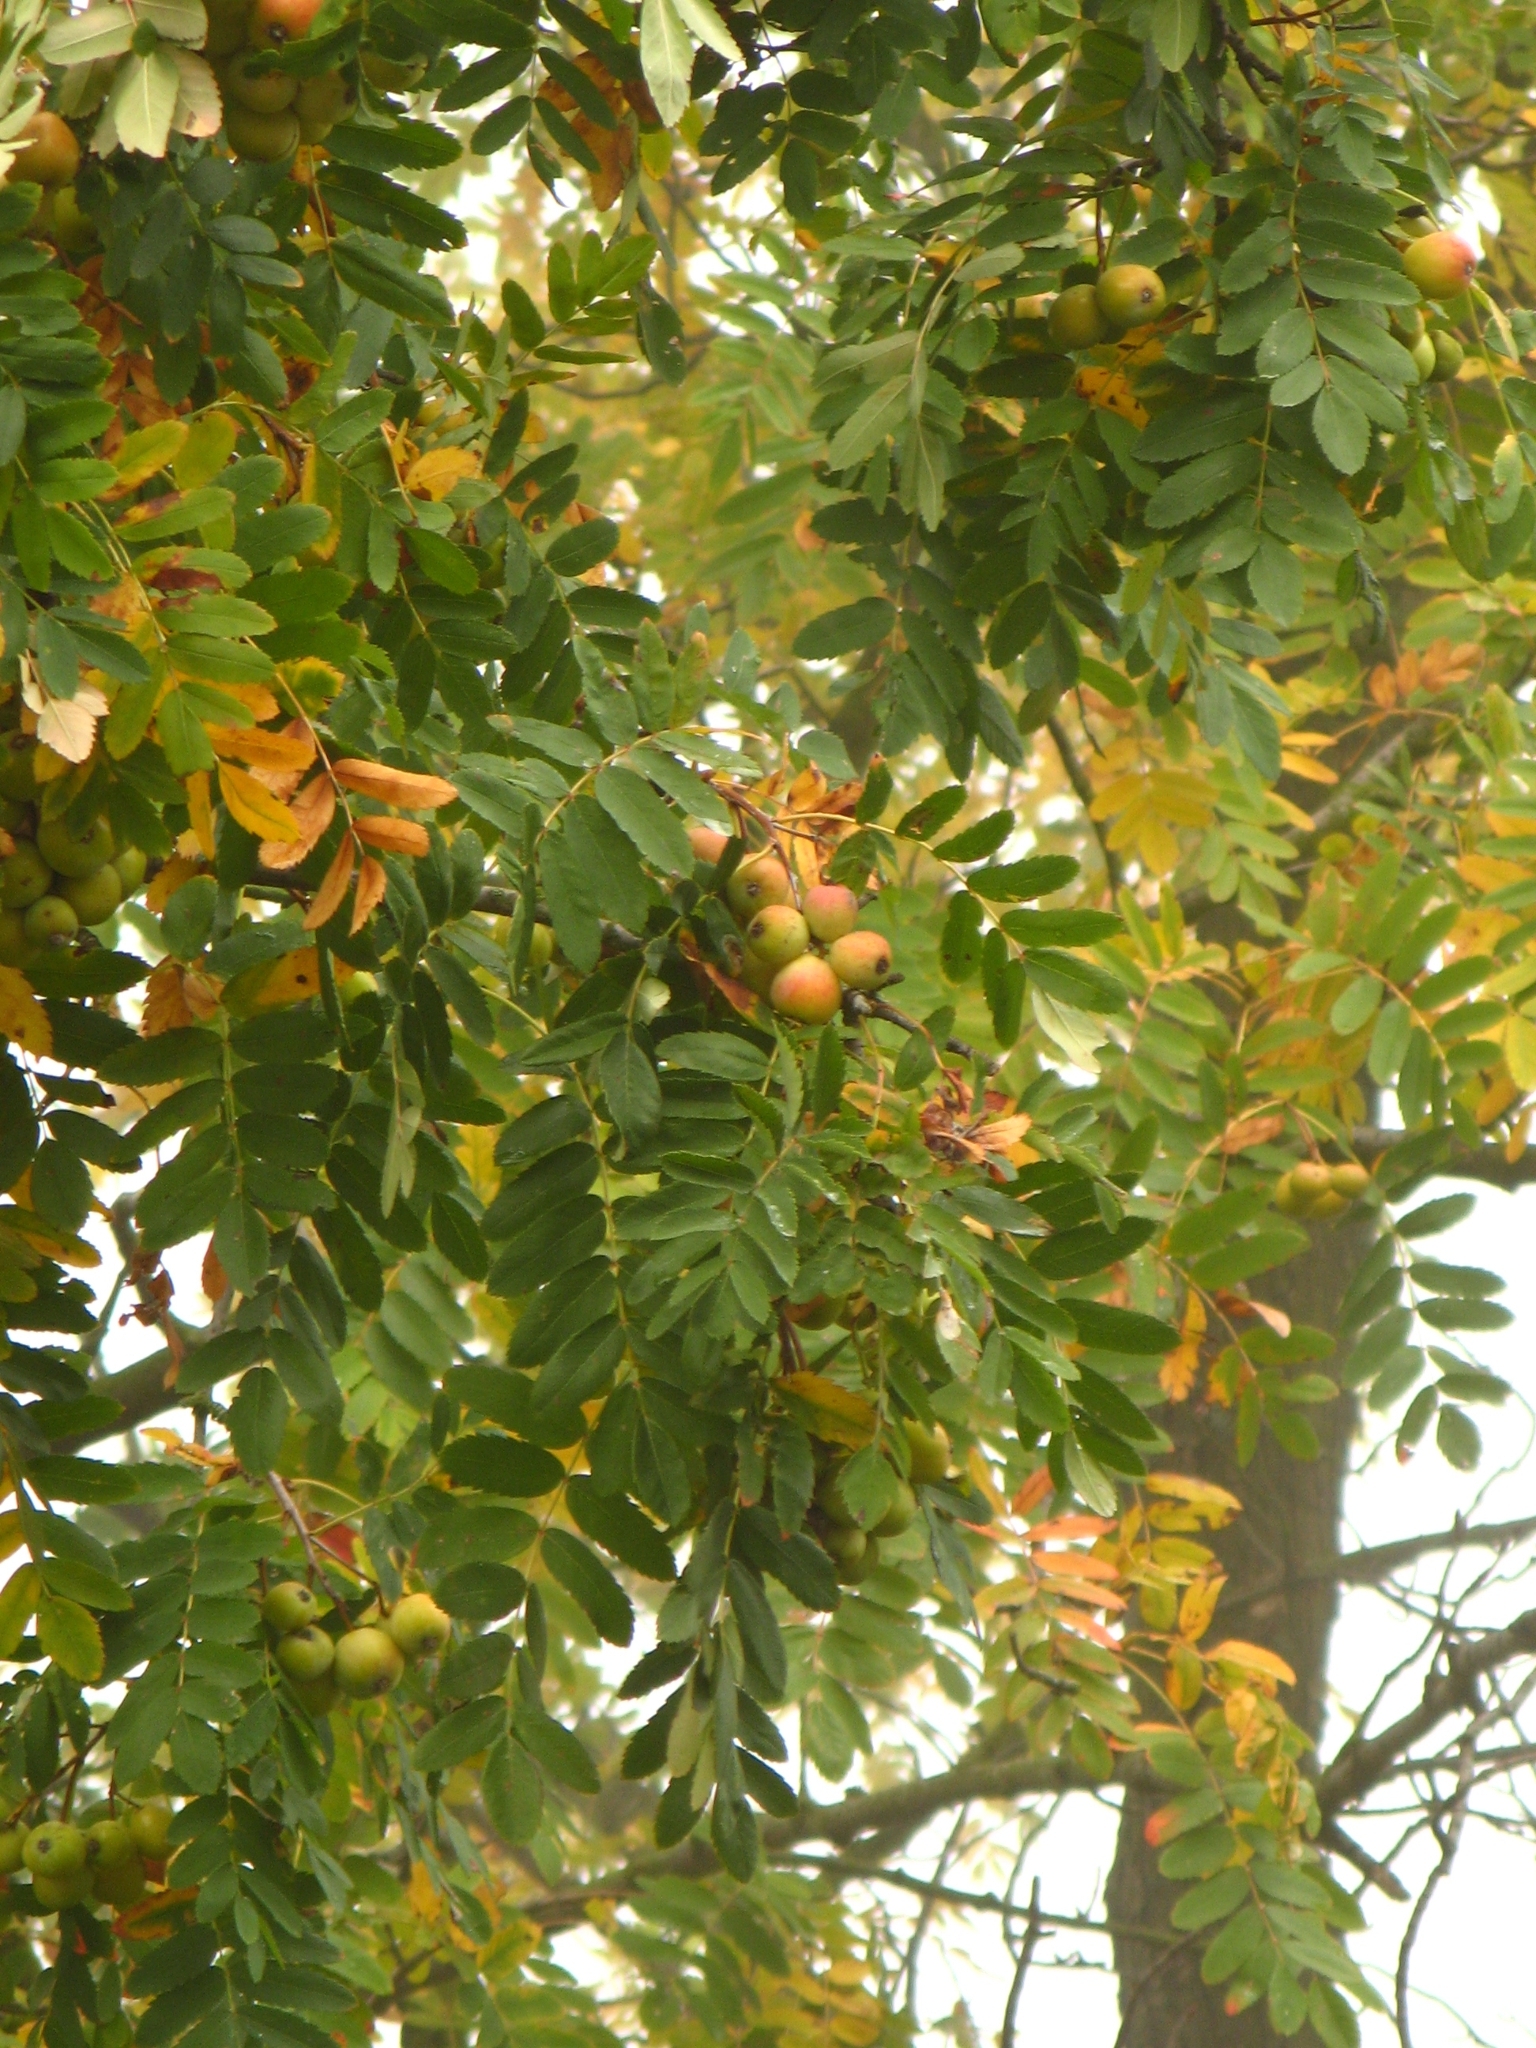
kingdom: Plantae
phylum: Tracheophyta
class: Magnoliopsida
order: Rosales
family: Rosaceae
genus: Cormus
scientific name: Cormus domestica
